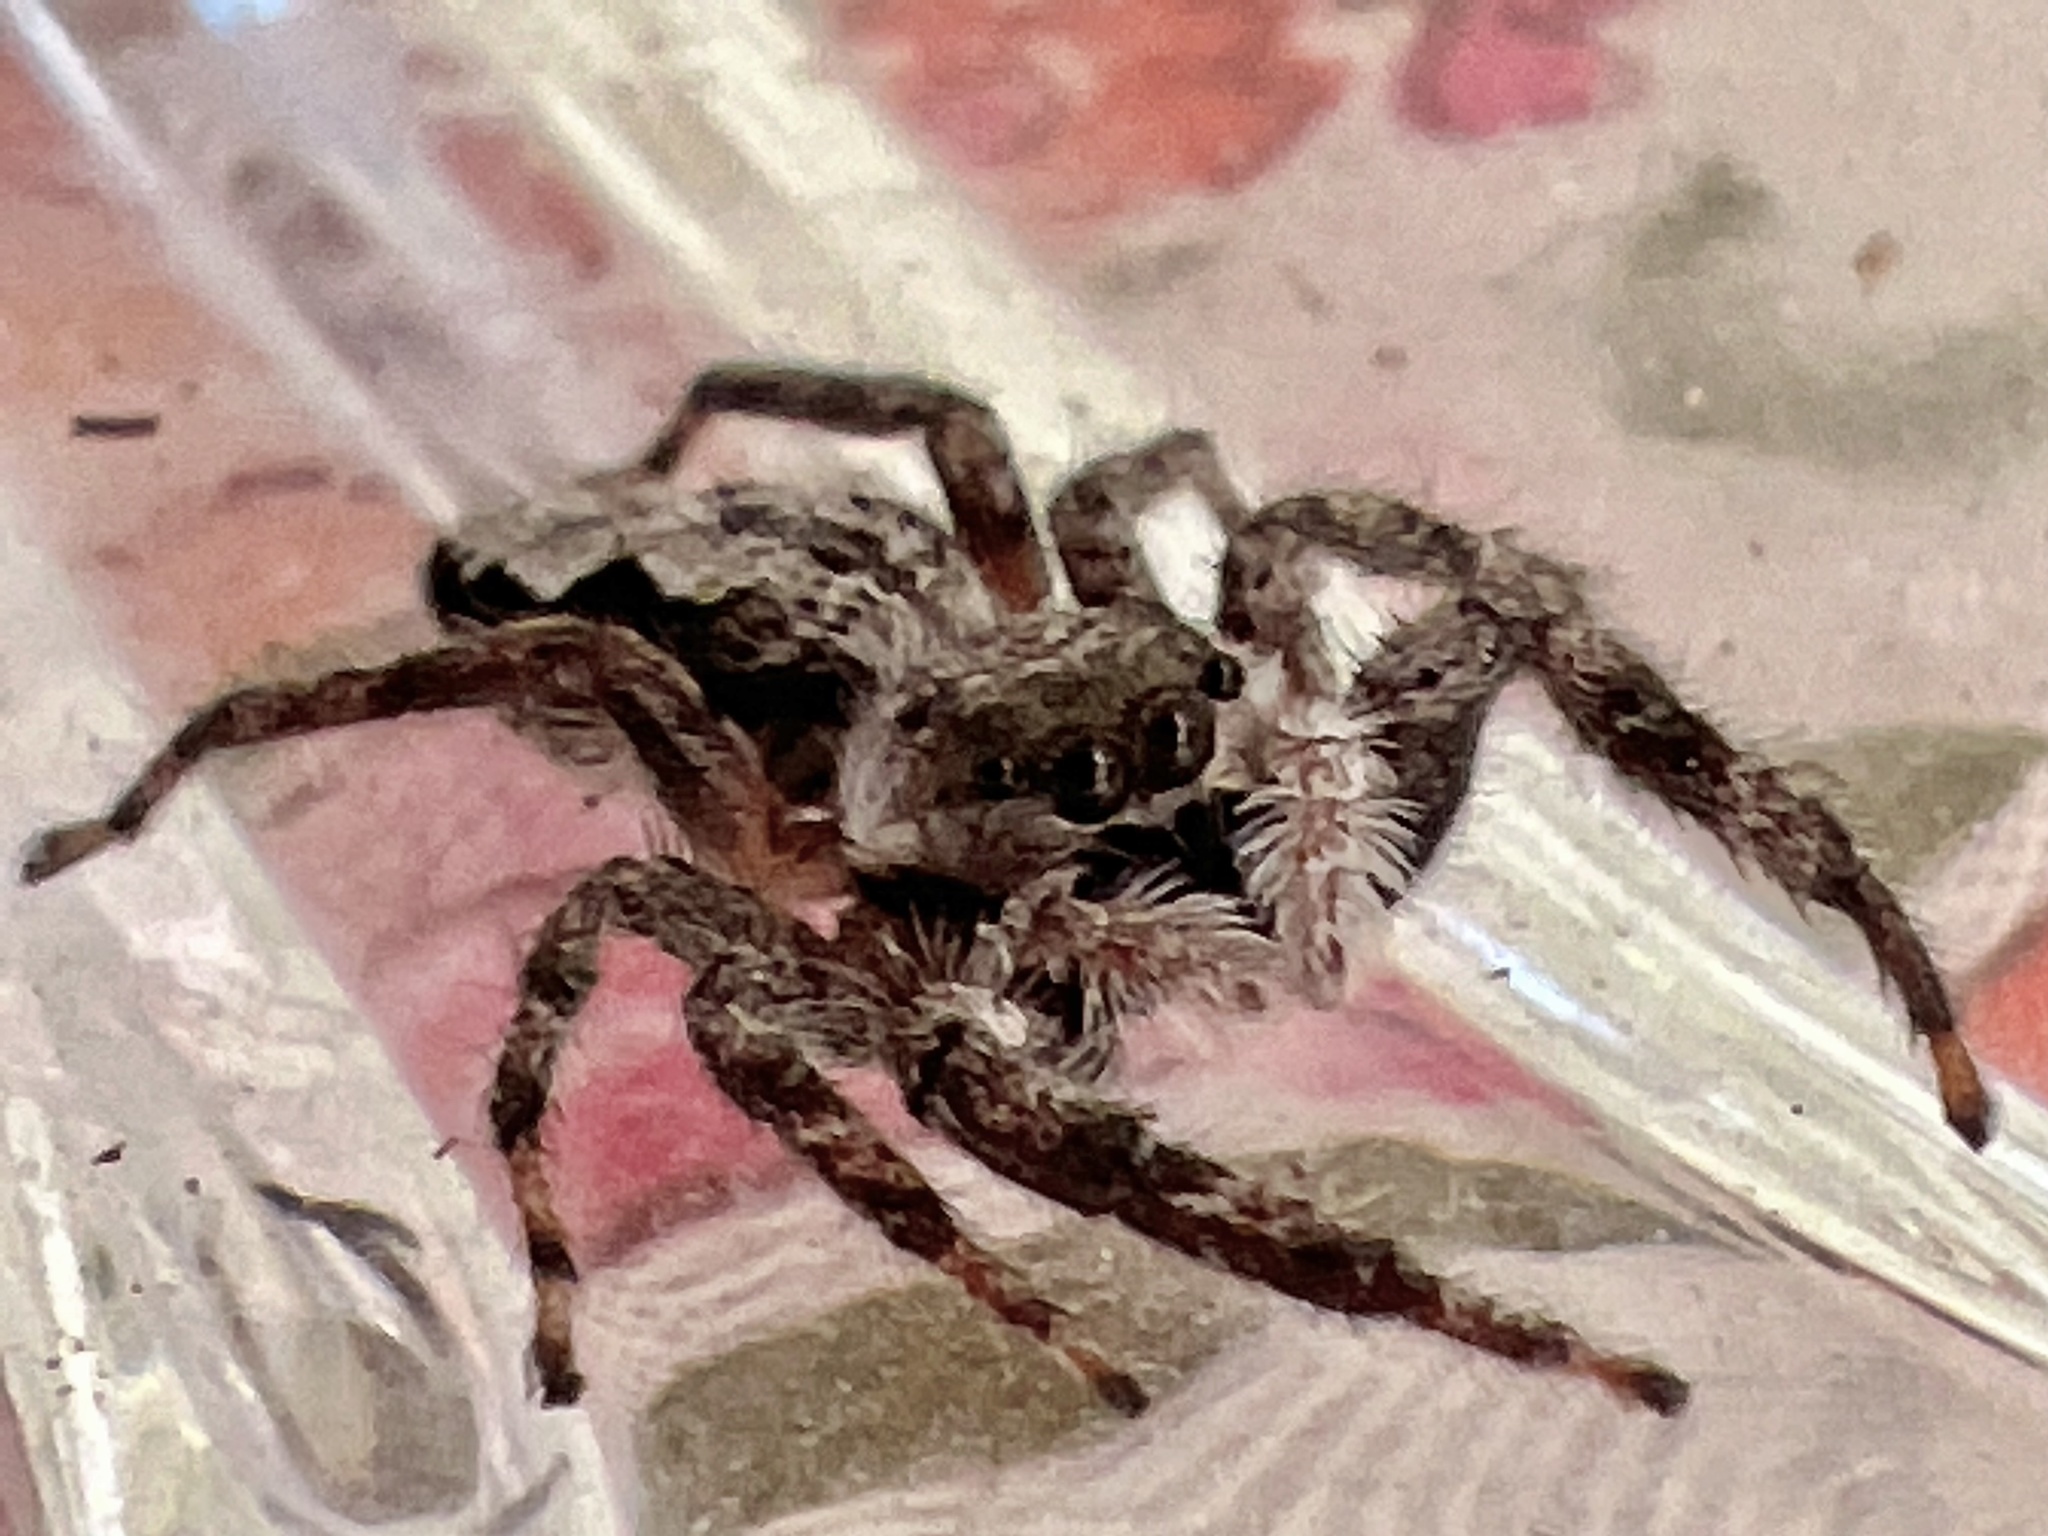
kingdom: Animalia
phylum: Arthropoda
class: Arachnida
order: Araneae
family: Salticidae
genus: Platycryptus
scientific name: Platycryptus undatus
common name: Tan jumping spider
